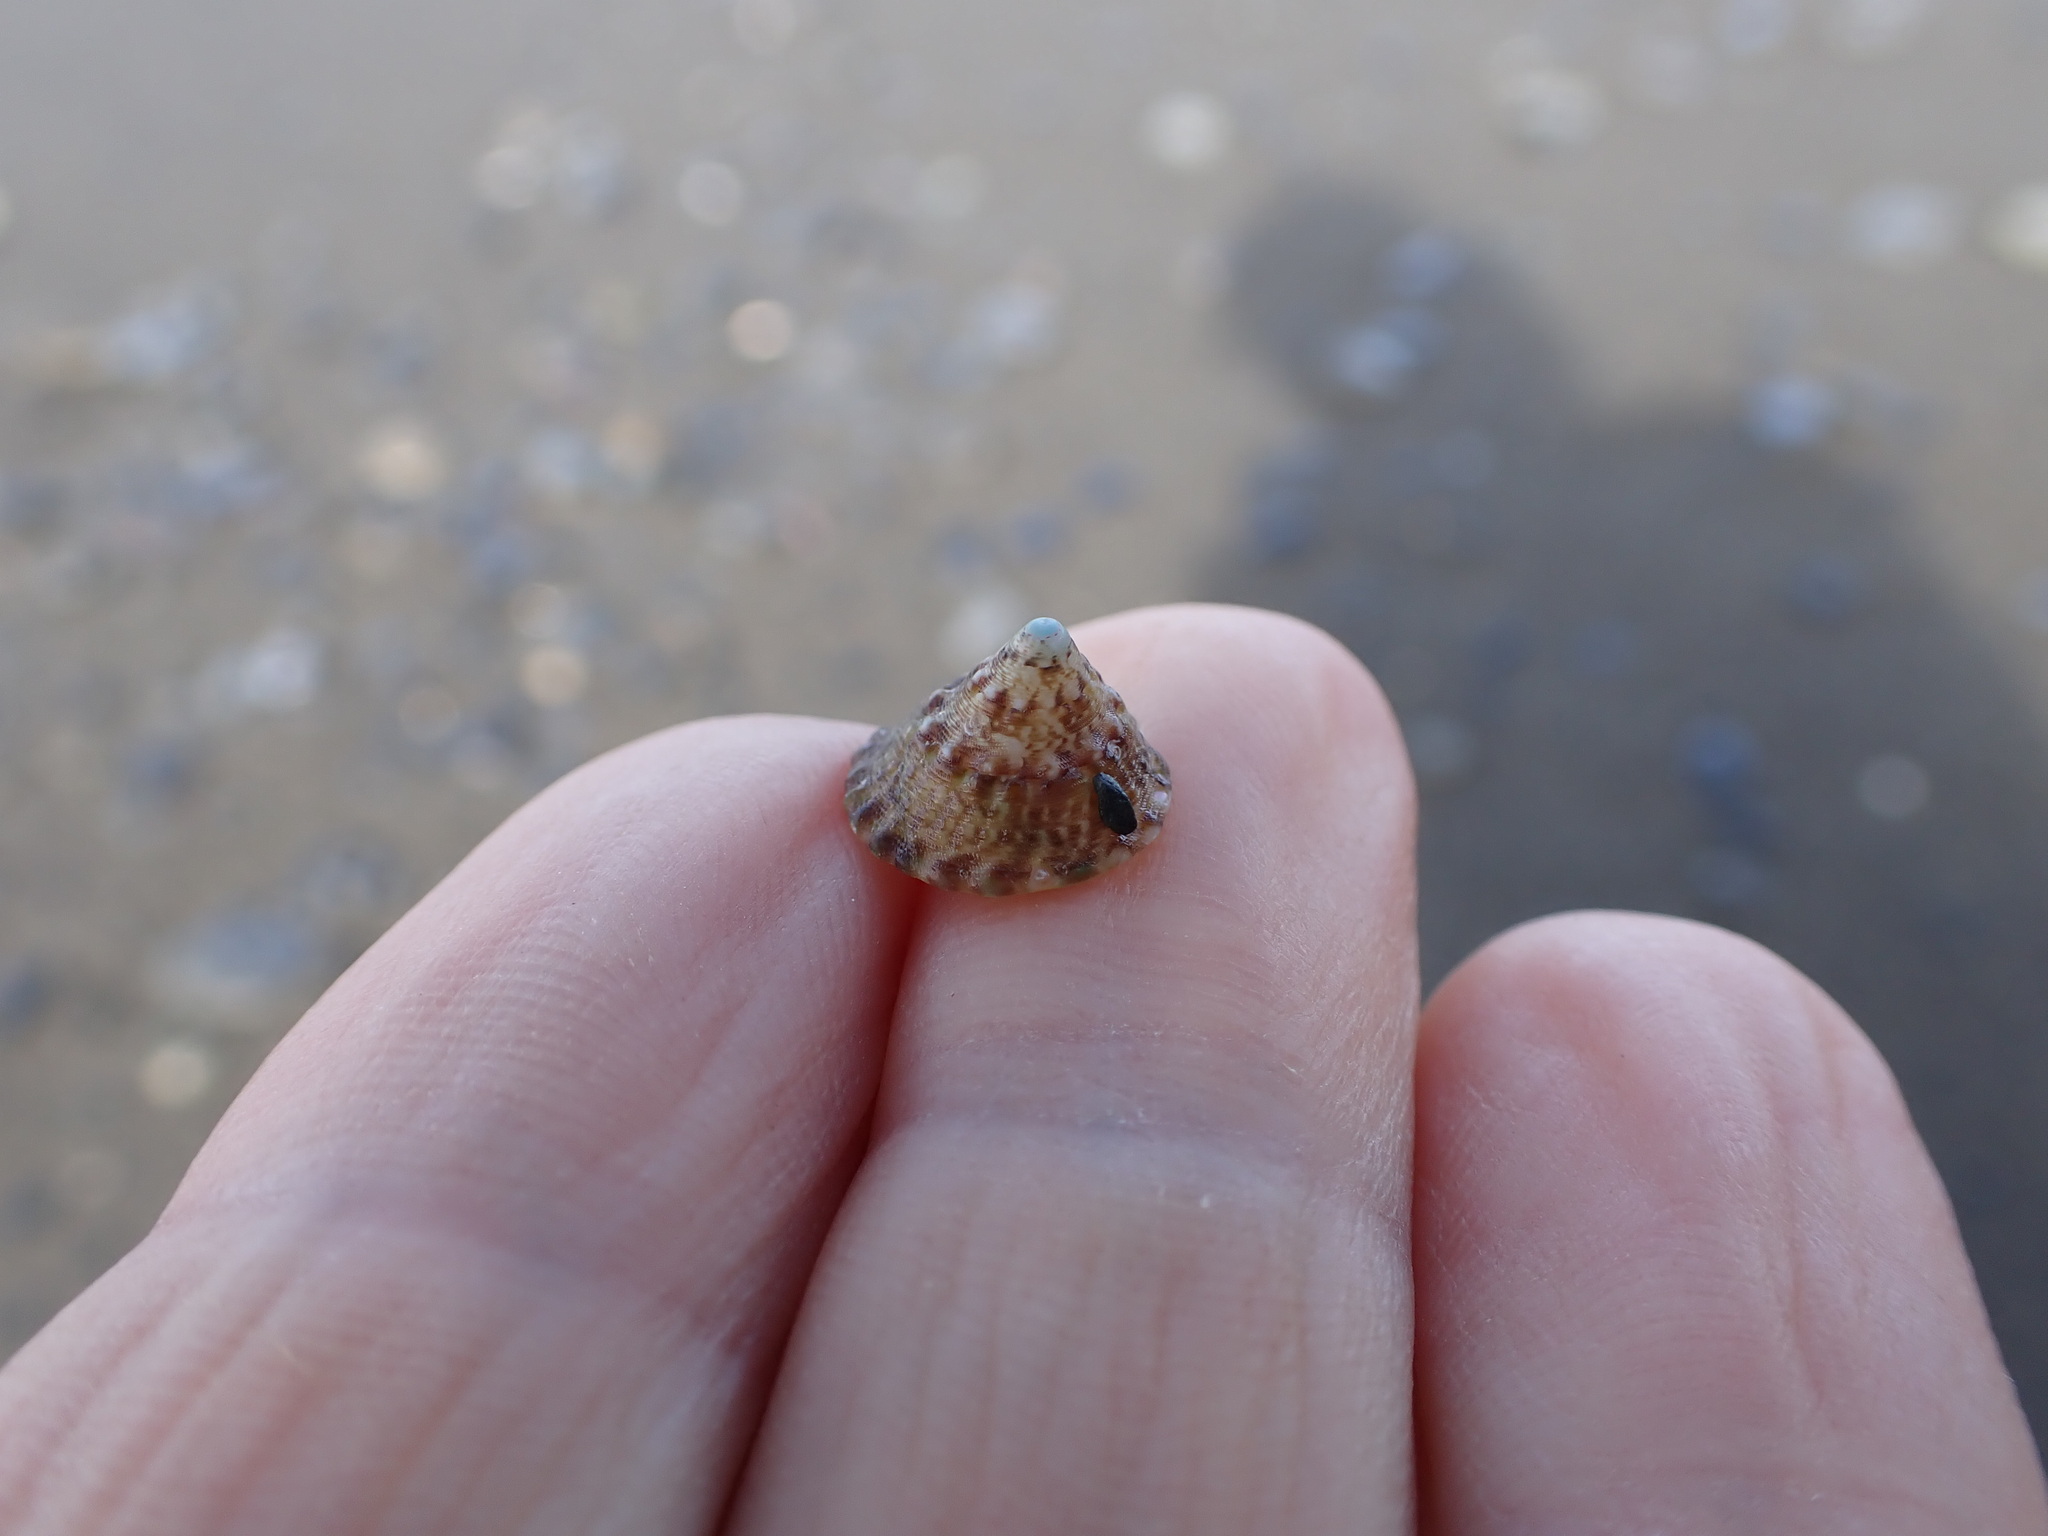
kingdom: Animalia
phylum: Mollusca
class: Gastropoda
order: Trochida
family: Trochidae
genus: Coelotrochus
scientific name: Coelotrochus viridis
